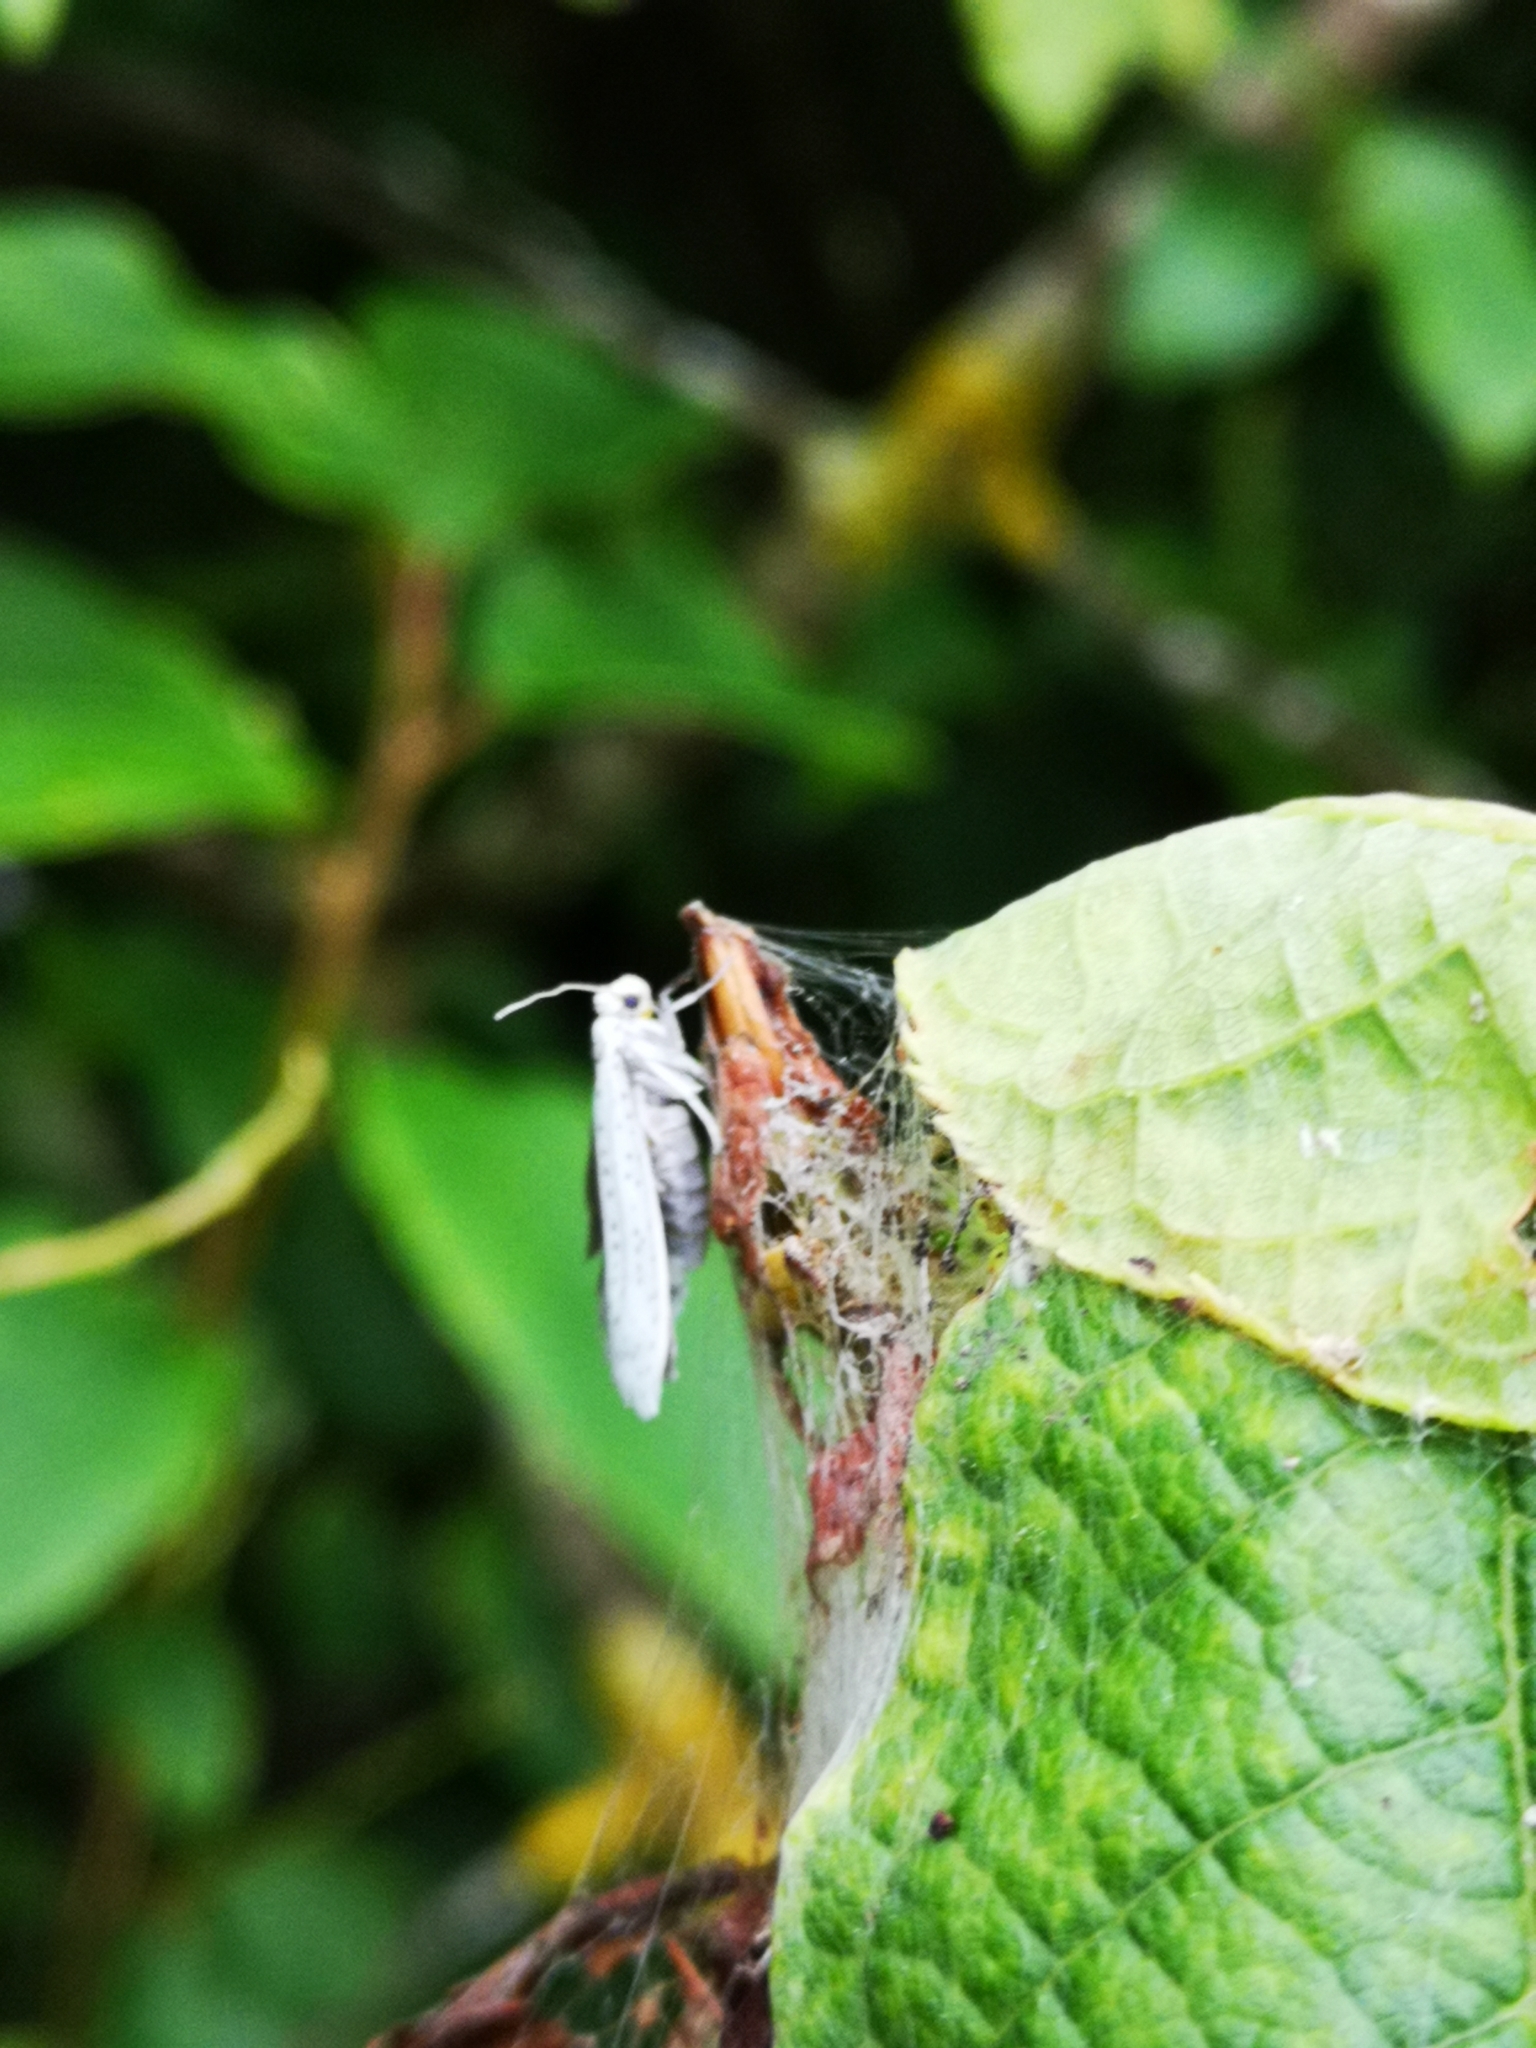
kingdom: Animalia
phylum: Arthropoda
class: Insecta
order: Lepidoptera
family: Yponomeutidae
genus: Yponomeuta
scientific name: Yponomeuta evonymella
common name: Bird-cherry ermine
